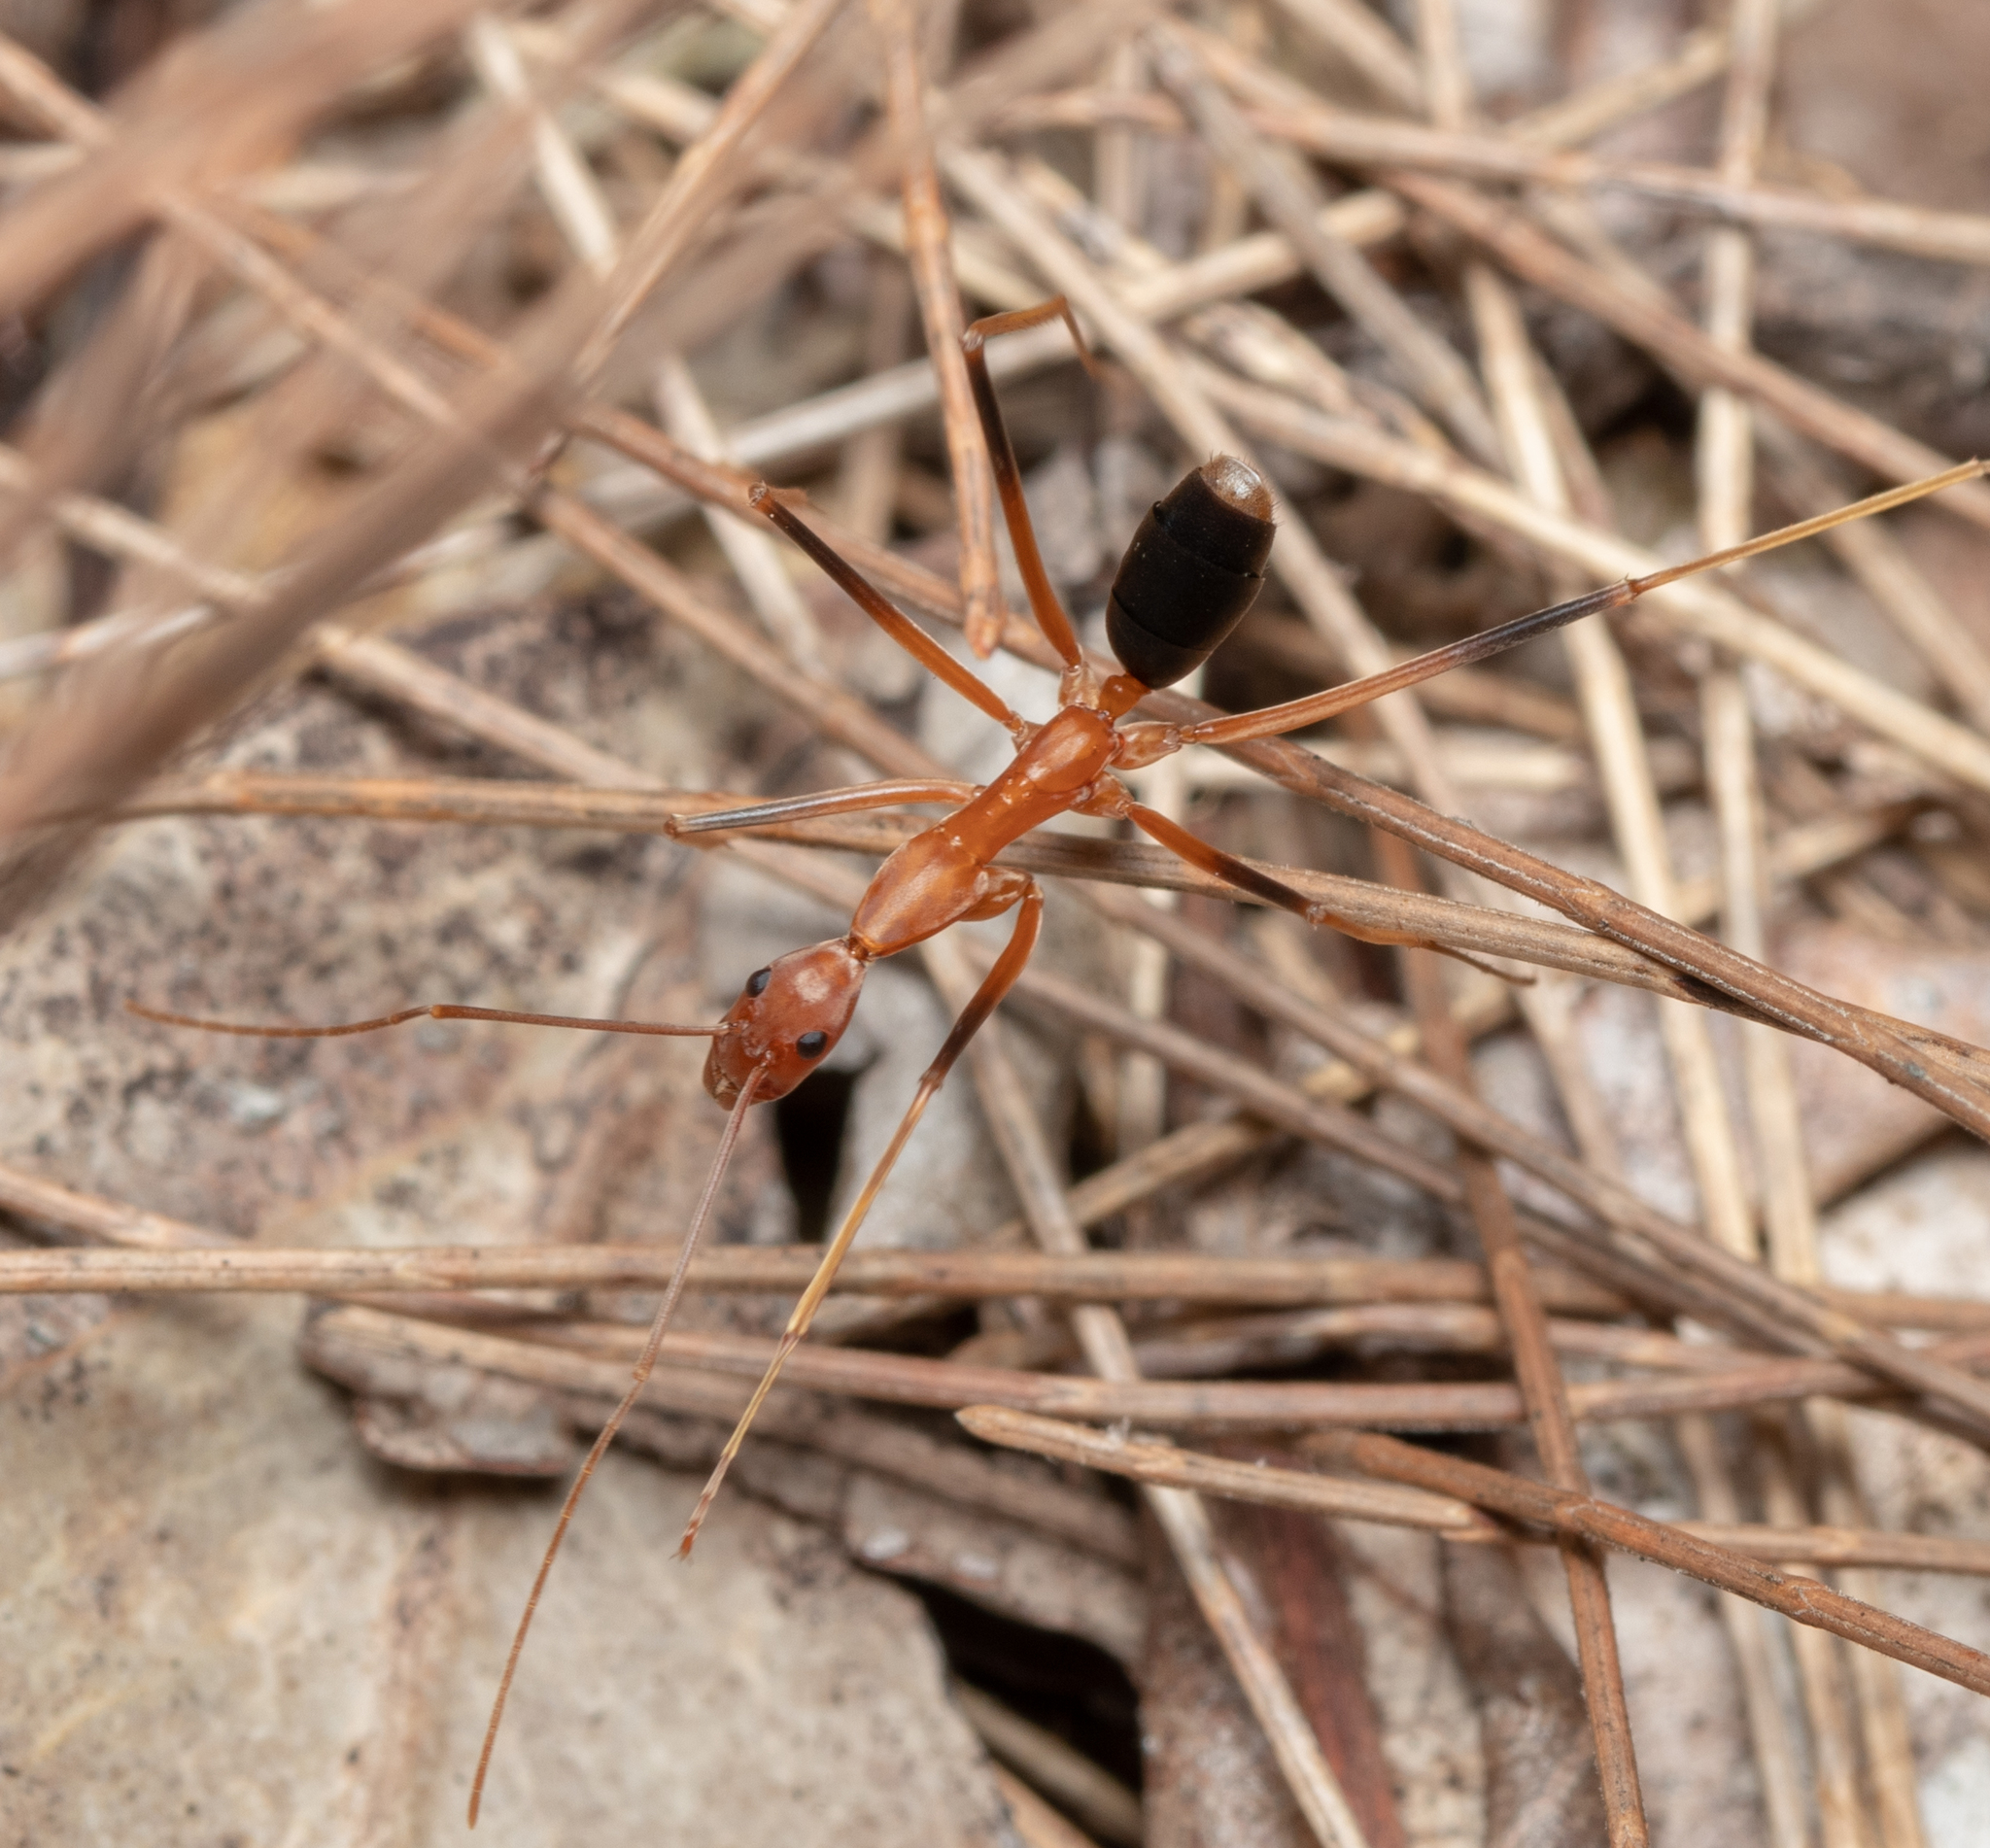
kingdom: Animalia
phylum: Arthropoda
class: Insecta
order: Hymenoptera
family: Formicidae
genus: Leptomyrmex
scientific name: Leptomyrmex rufipes
